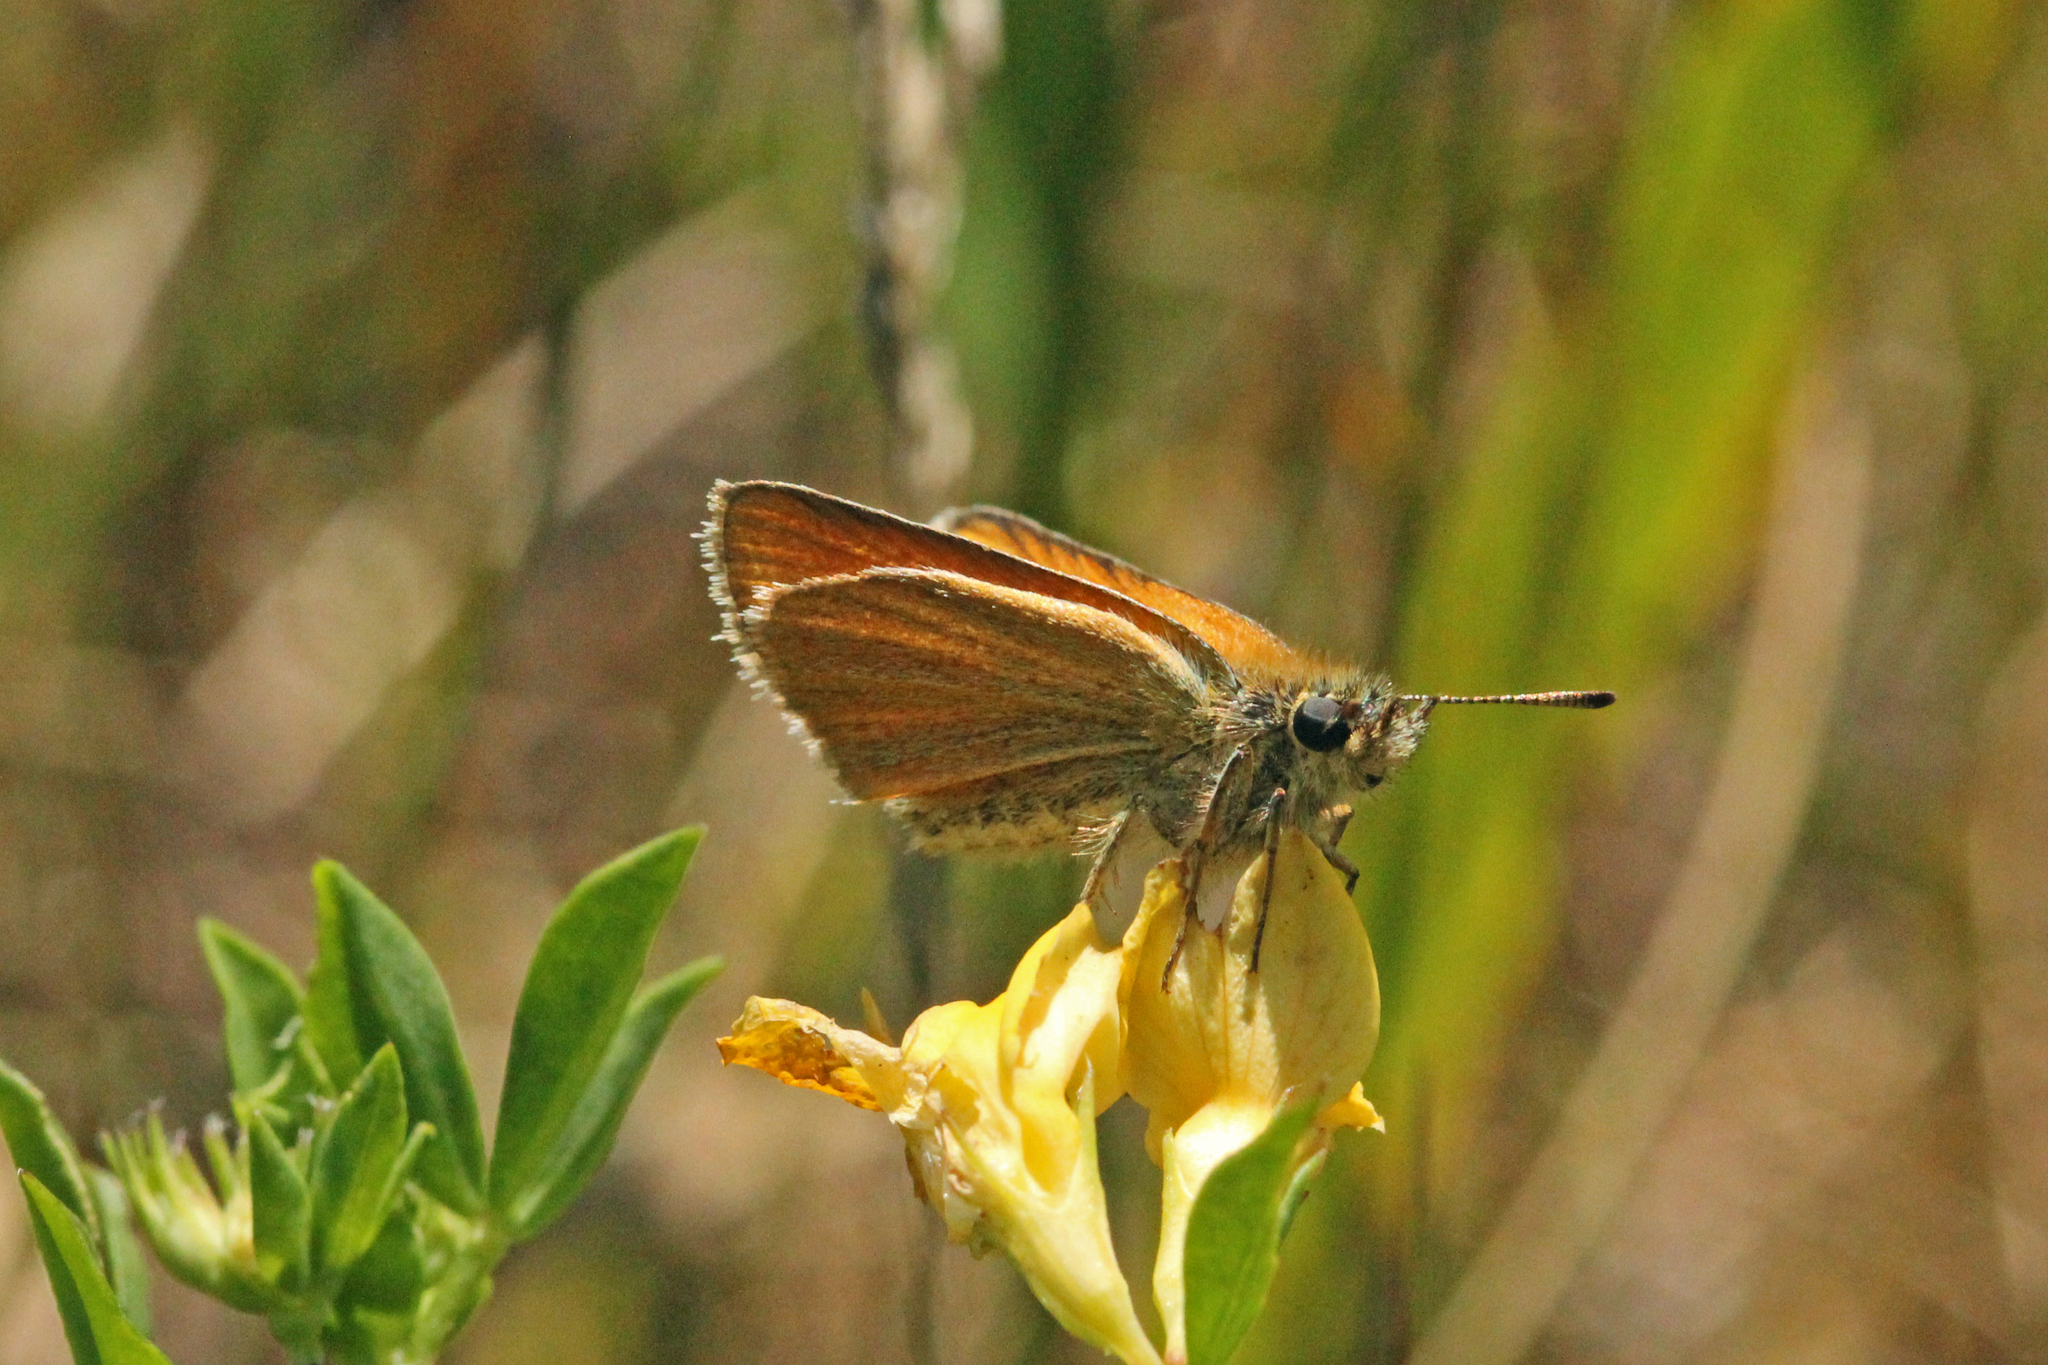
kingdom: Animalia
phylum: Arthropoda
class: Insecta
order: Lepidoptera
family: Hesperiidae
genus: Thymelicus
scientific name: Thymelicus lineola
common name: Essex skipper
